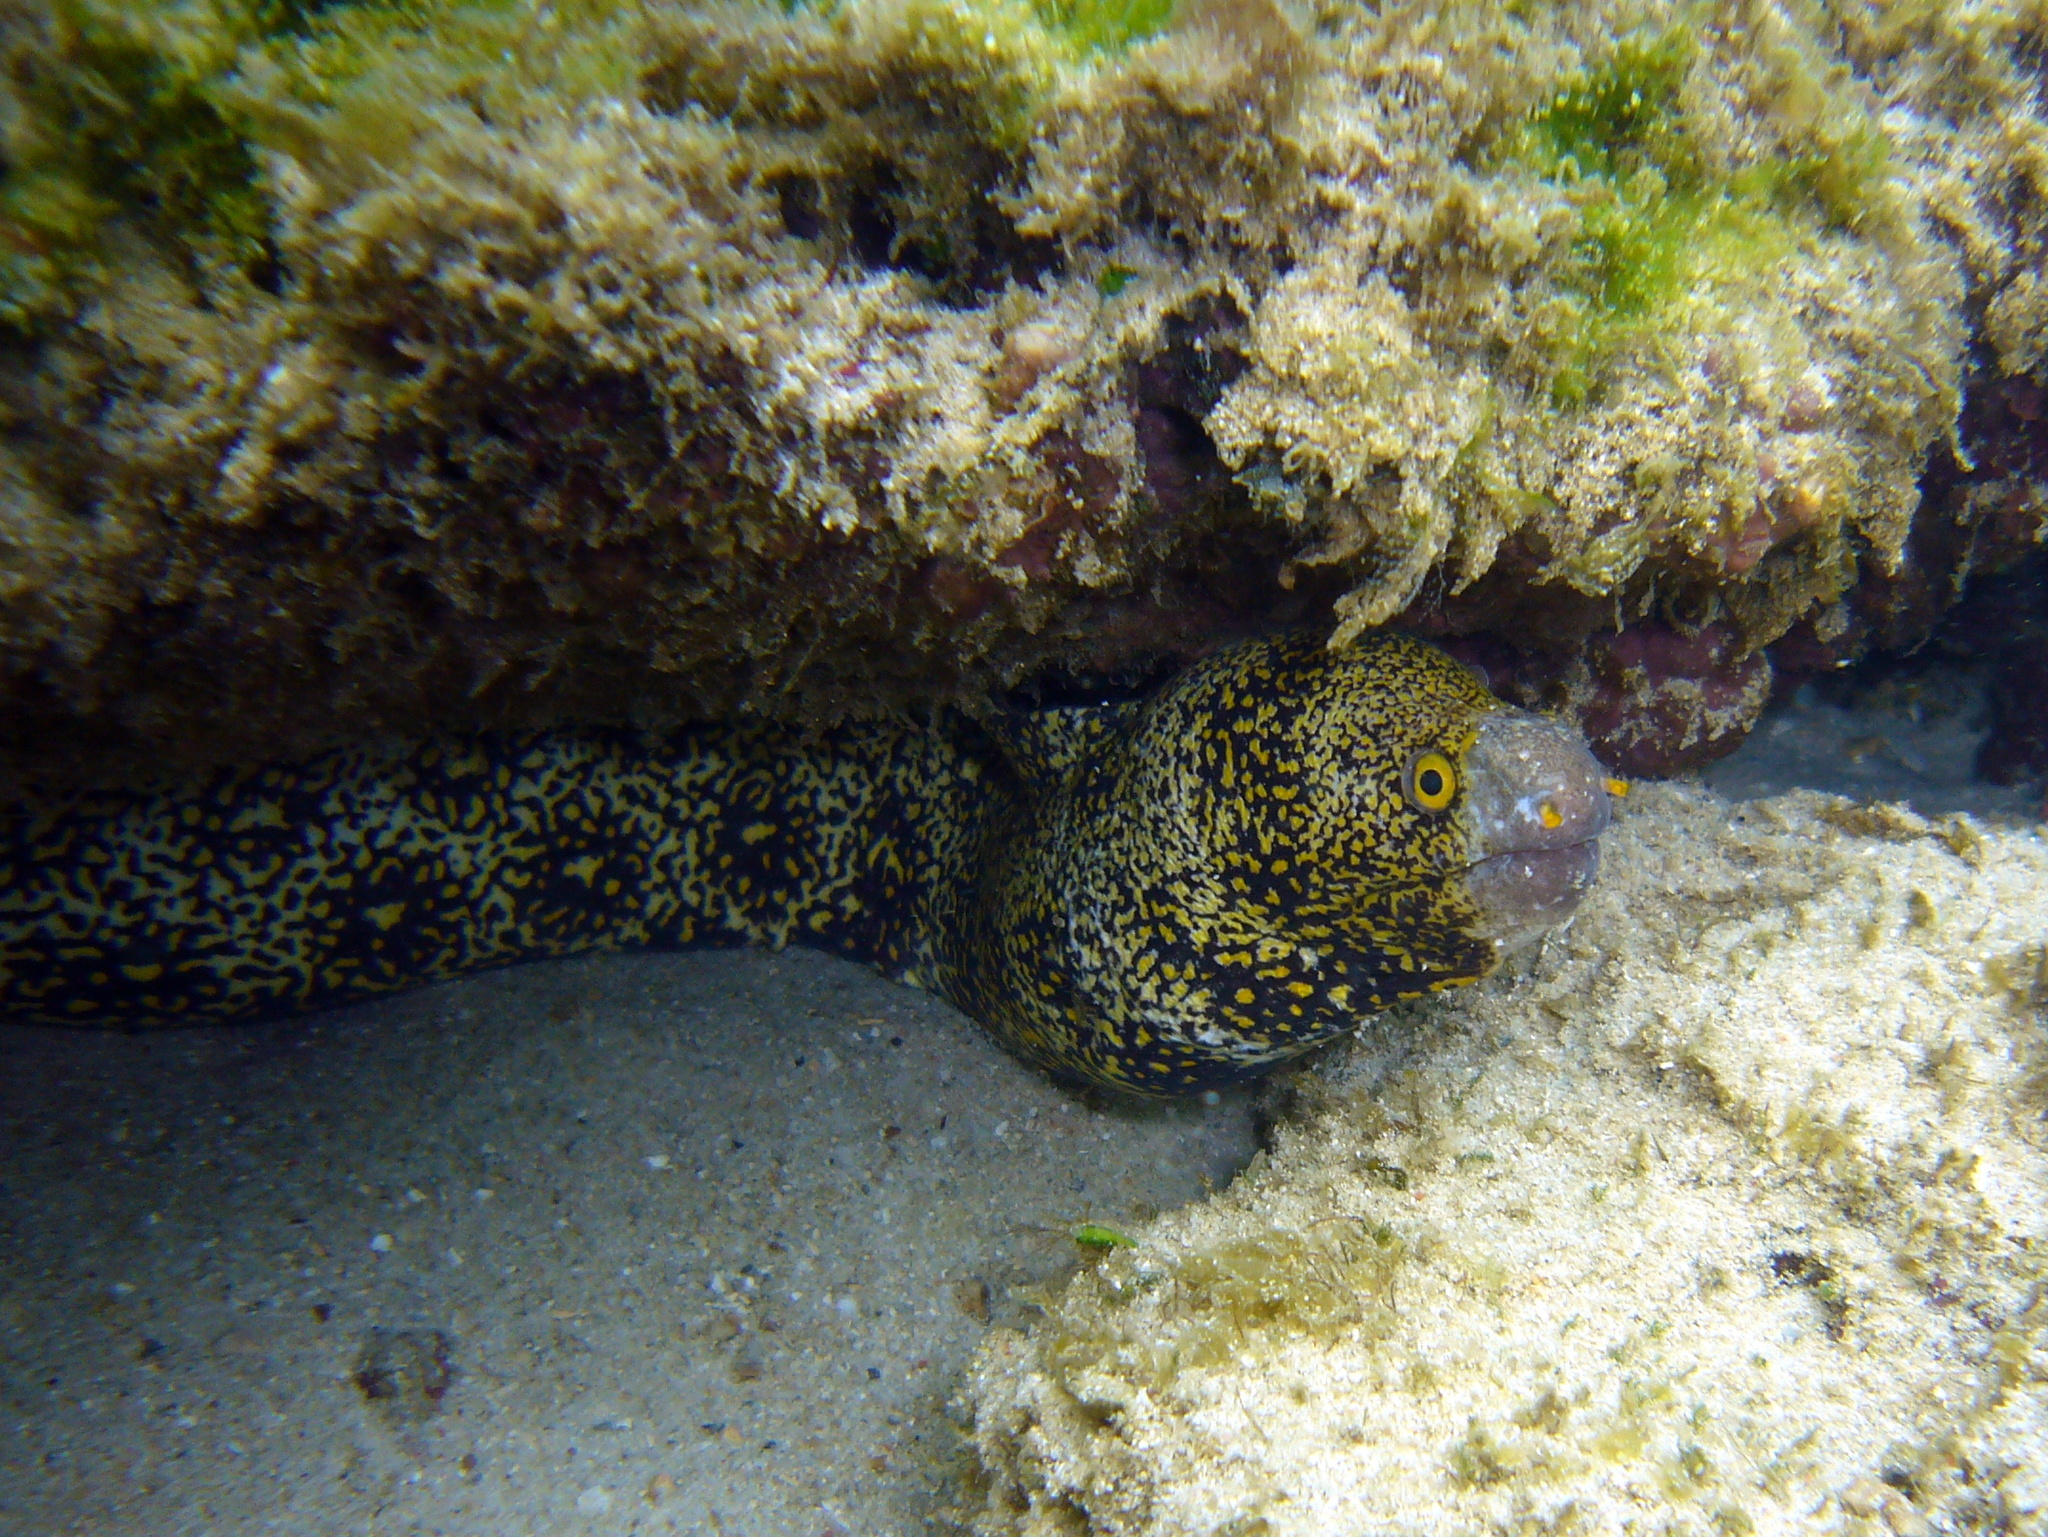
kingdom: Animalia
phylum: Chordata
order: Anguilliformes
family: Muraenidae
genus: Echidna
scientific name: Echidna nebulosa
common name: Snowflake moray
